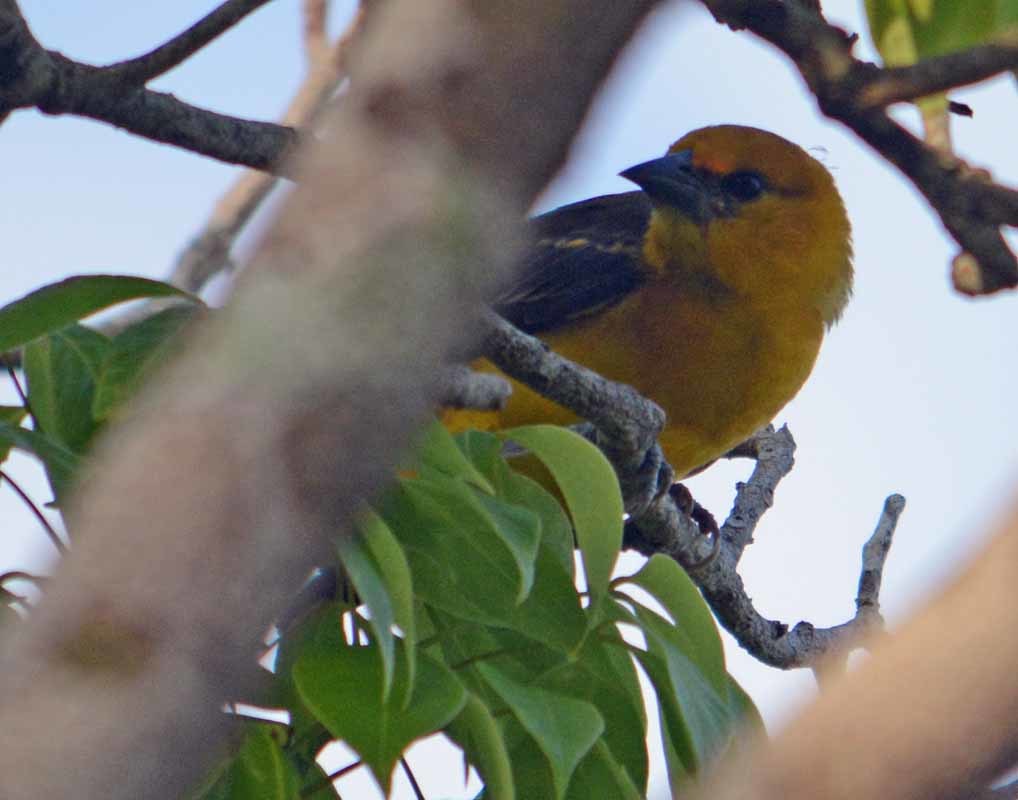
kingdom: Animalia
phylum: Chordata
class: Aves
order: Passeriformes
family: Icteridae
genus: Icterus
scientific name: Icterus gularis
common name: Altamira oriole
